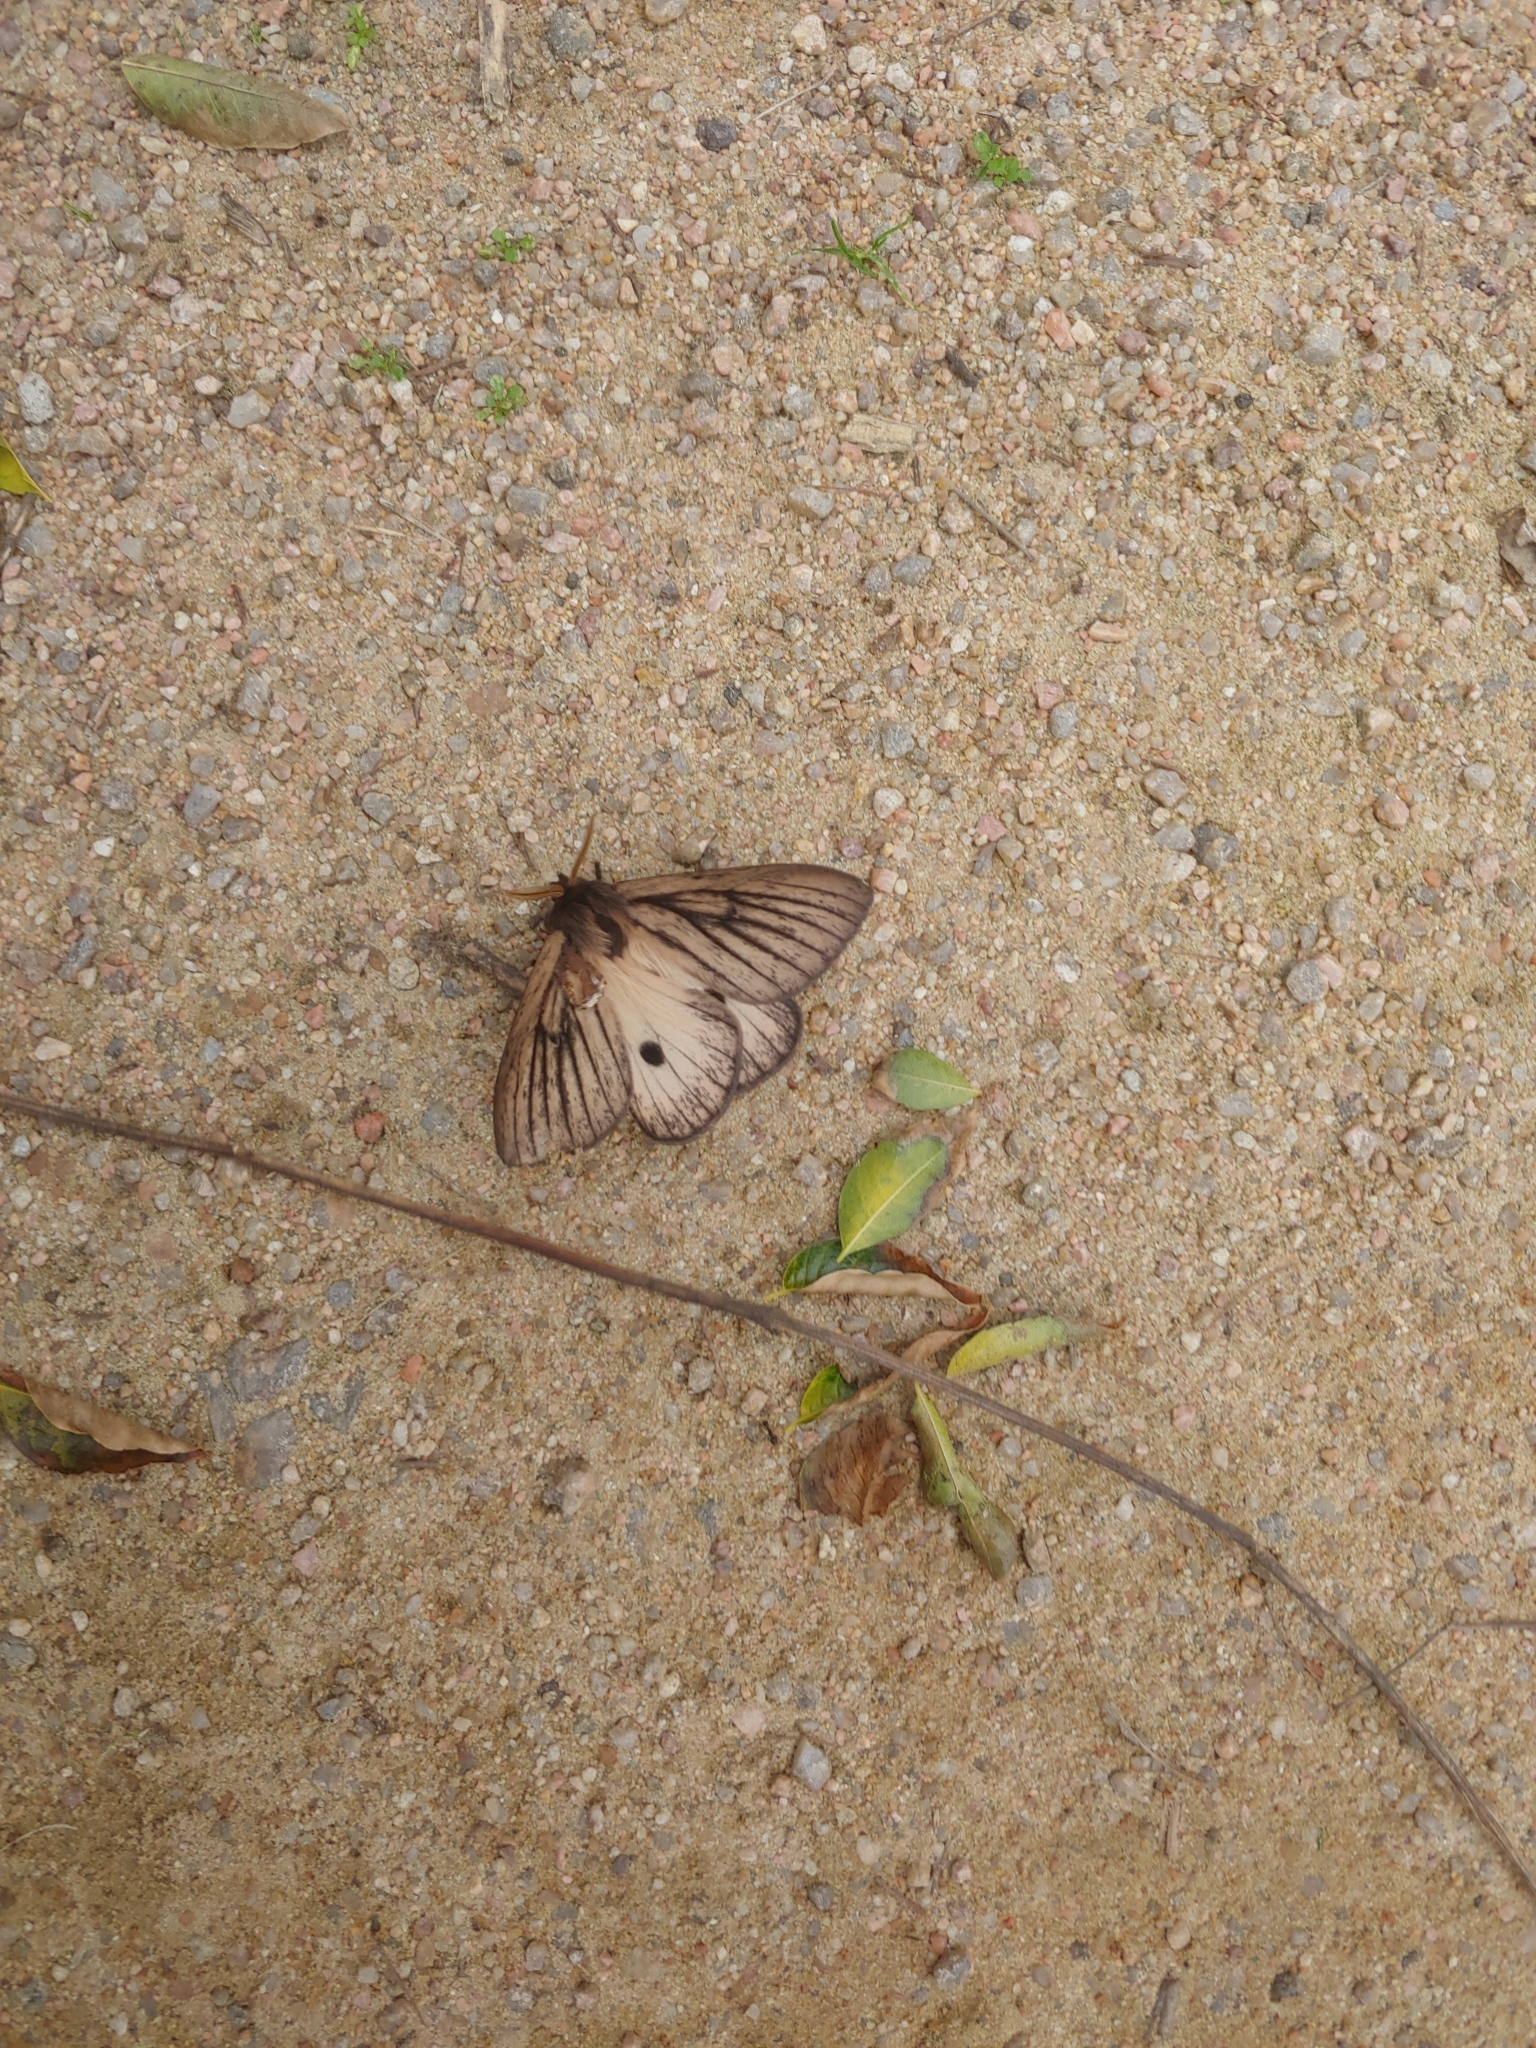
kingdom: Animalia
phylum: Arthropoda
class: Insecta
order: Lepidoptera
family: Saturniidae
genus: Eudyaria
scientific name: Eudyaria zeta
